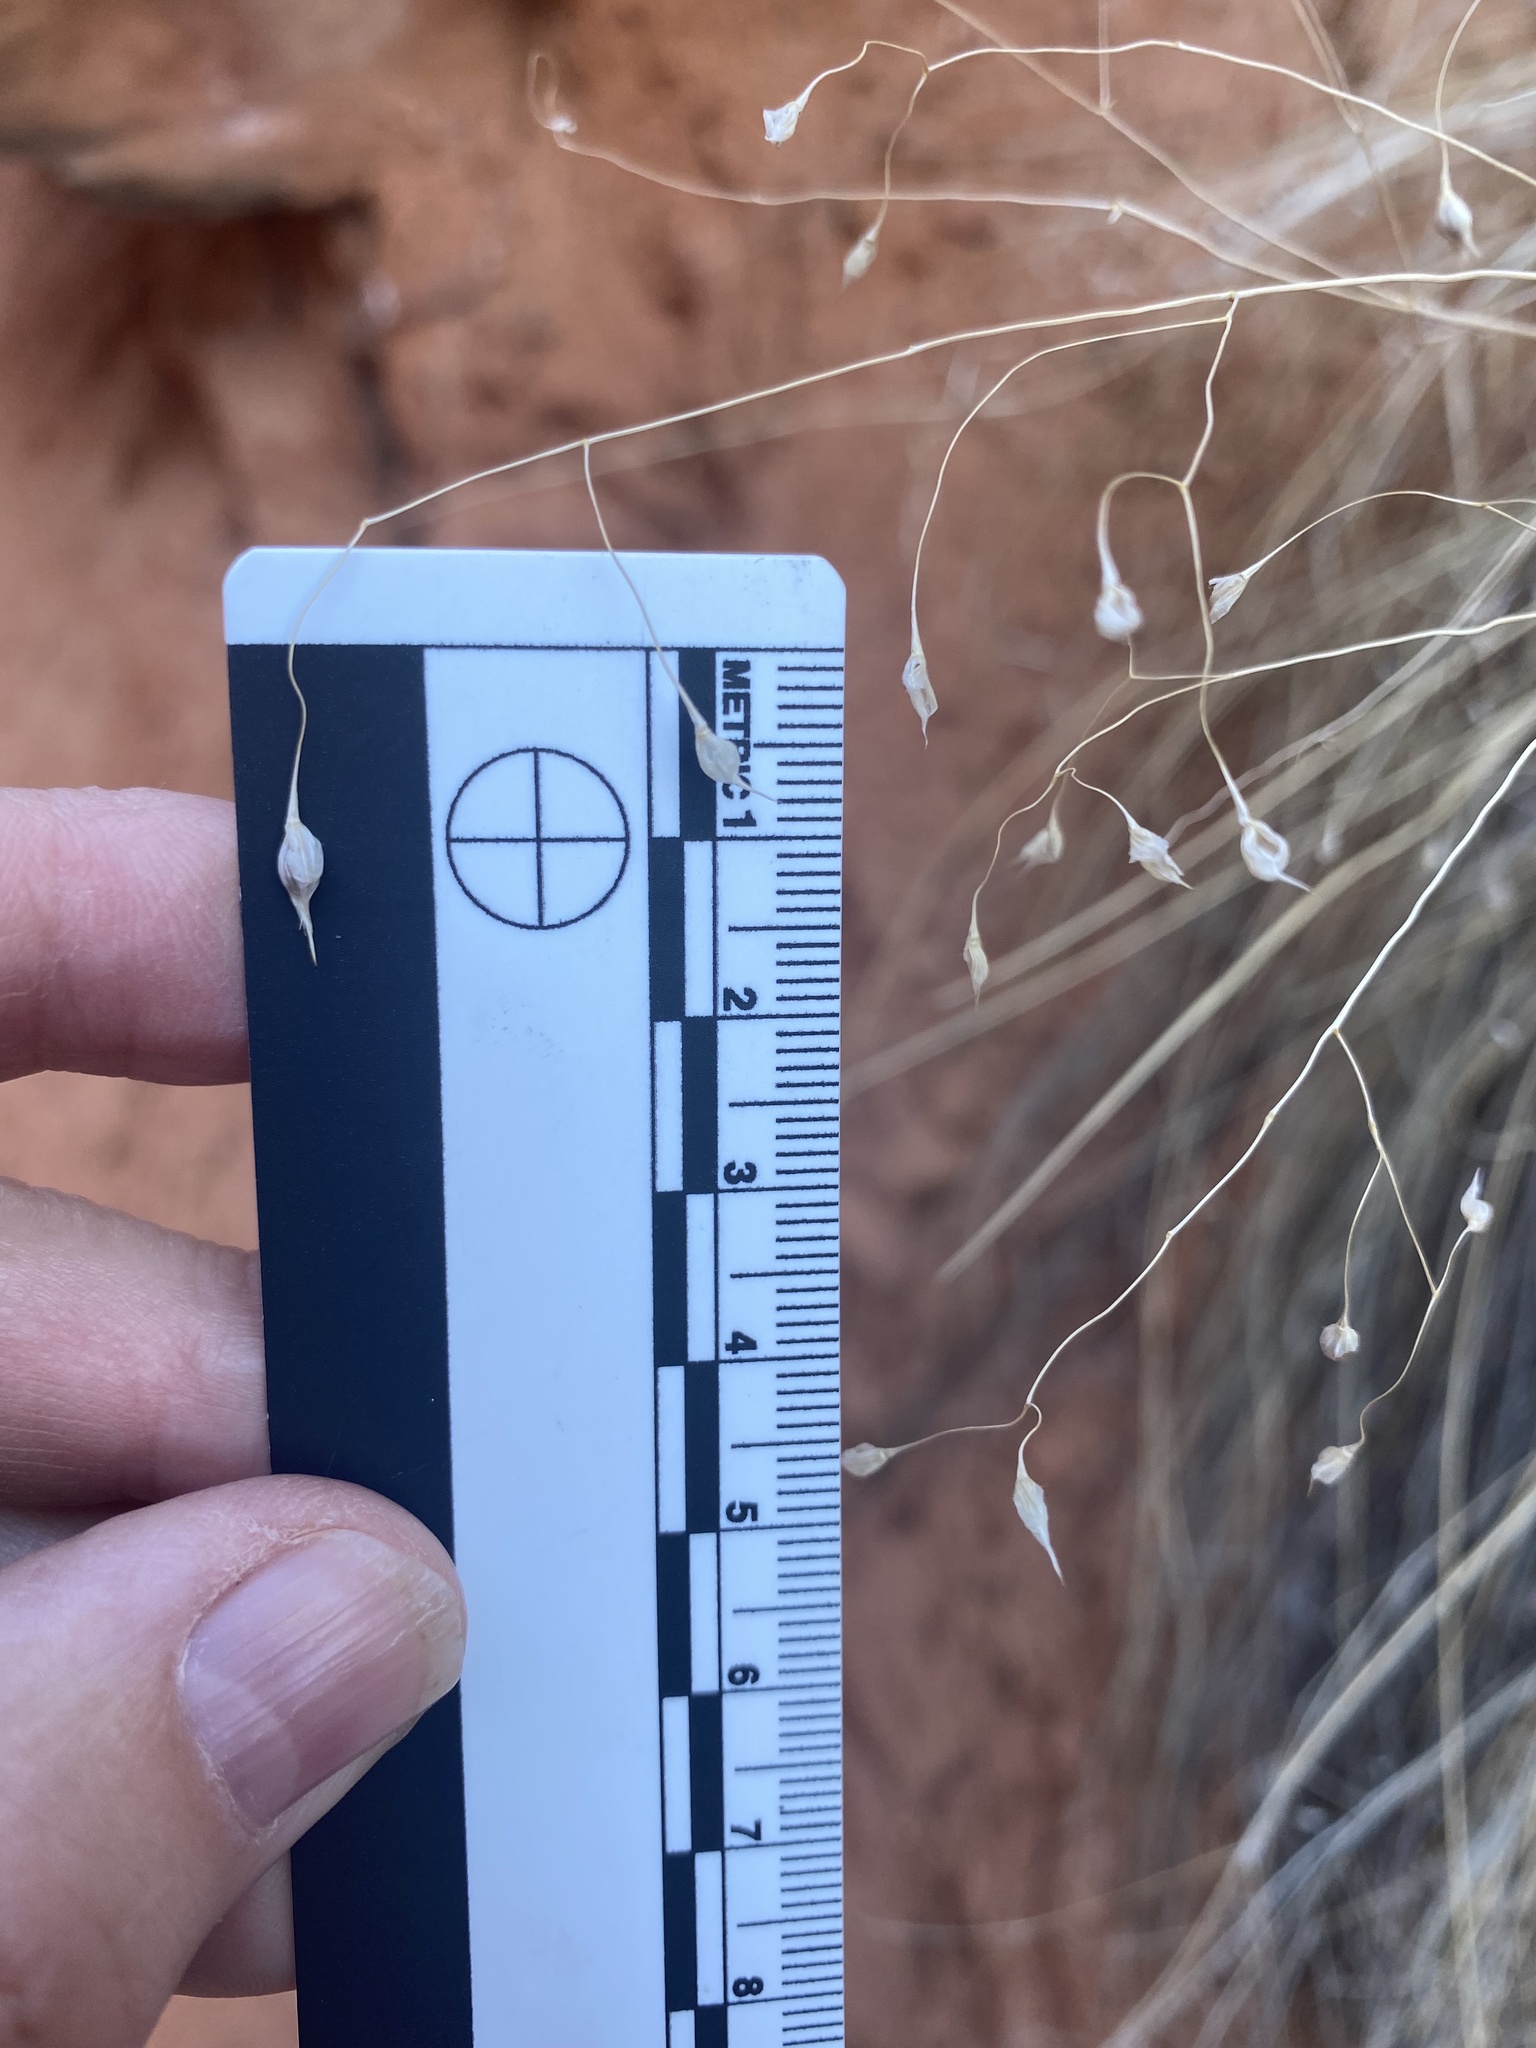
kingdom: Plantae
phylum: Tracheophyta
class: Liliopsida
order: Poales
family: Poaceae
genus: Eriocoma
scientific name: Eriocoma hymenoides
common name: Indian mountain ricegrass
